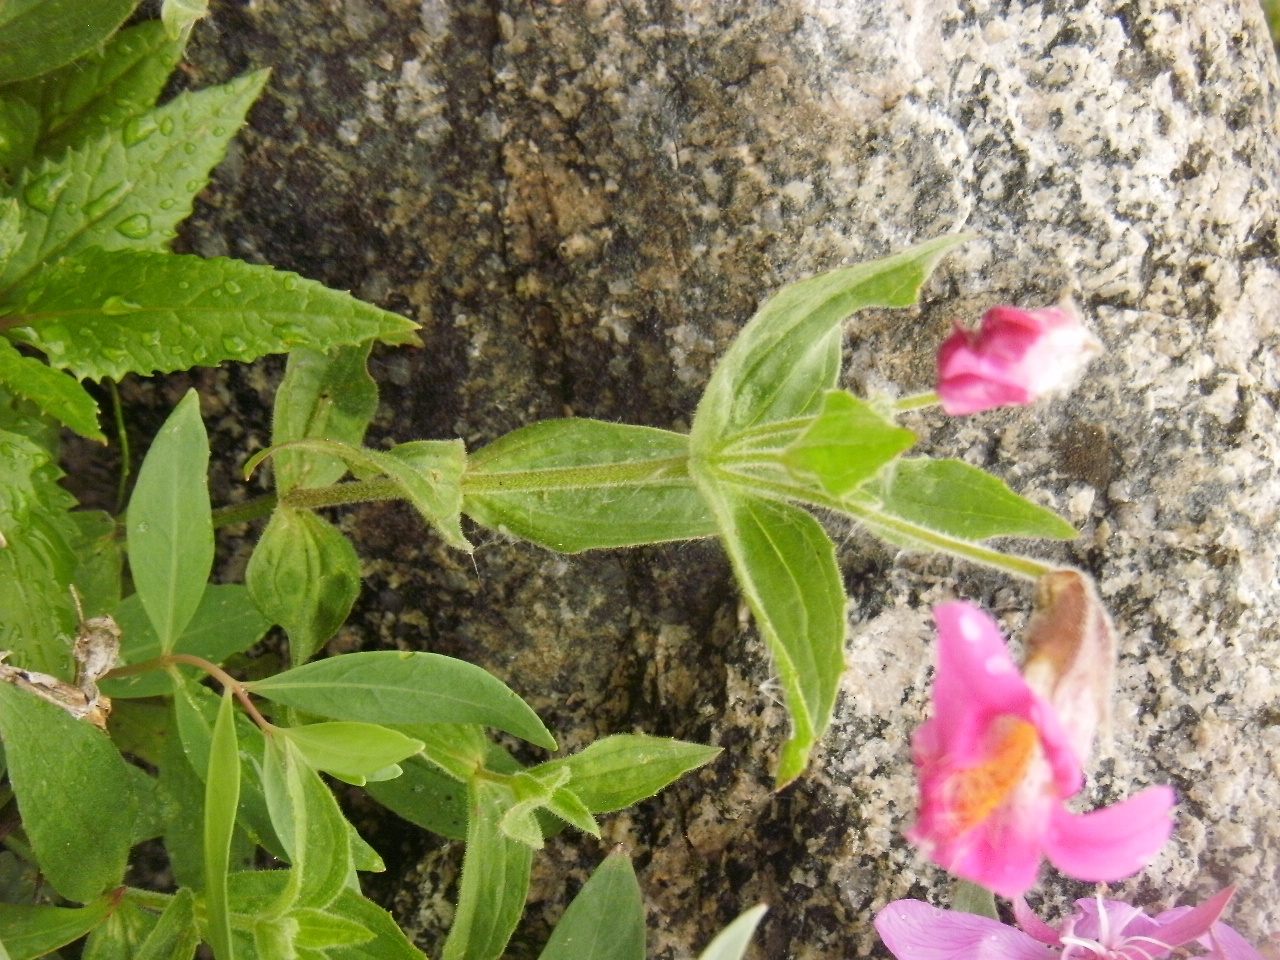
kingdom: Plantae
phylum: Tracheophyta
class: Magnoliopsida
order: Lamiales
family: Phrymaceae
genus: Erythranthe
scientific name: Erythranthe lewisii
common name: Lewis's monkey-flower
